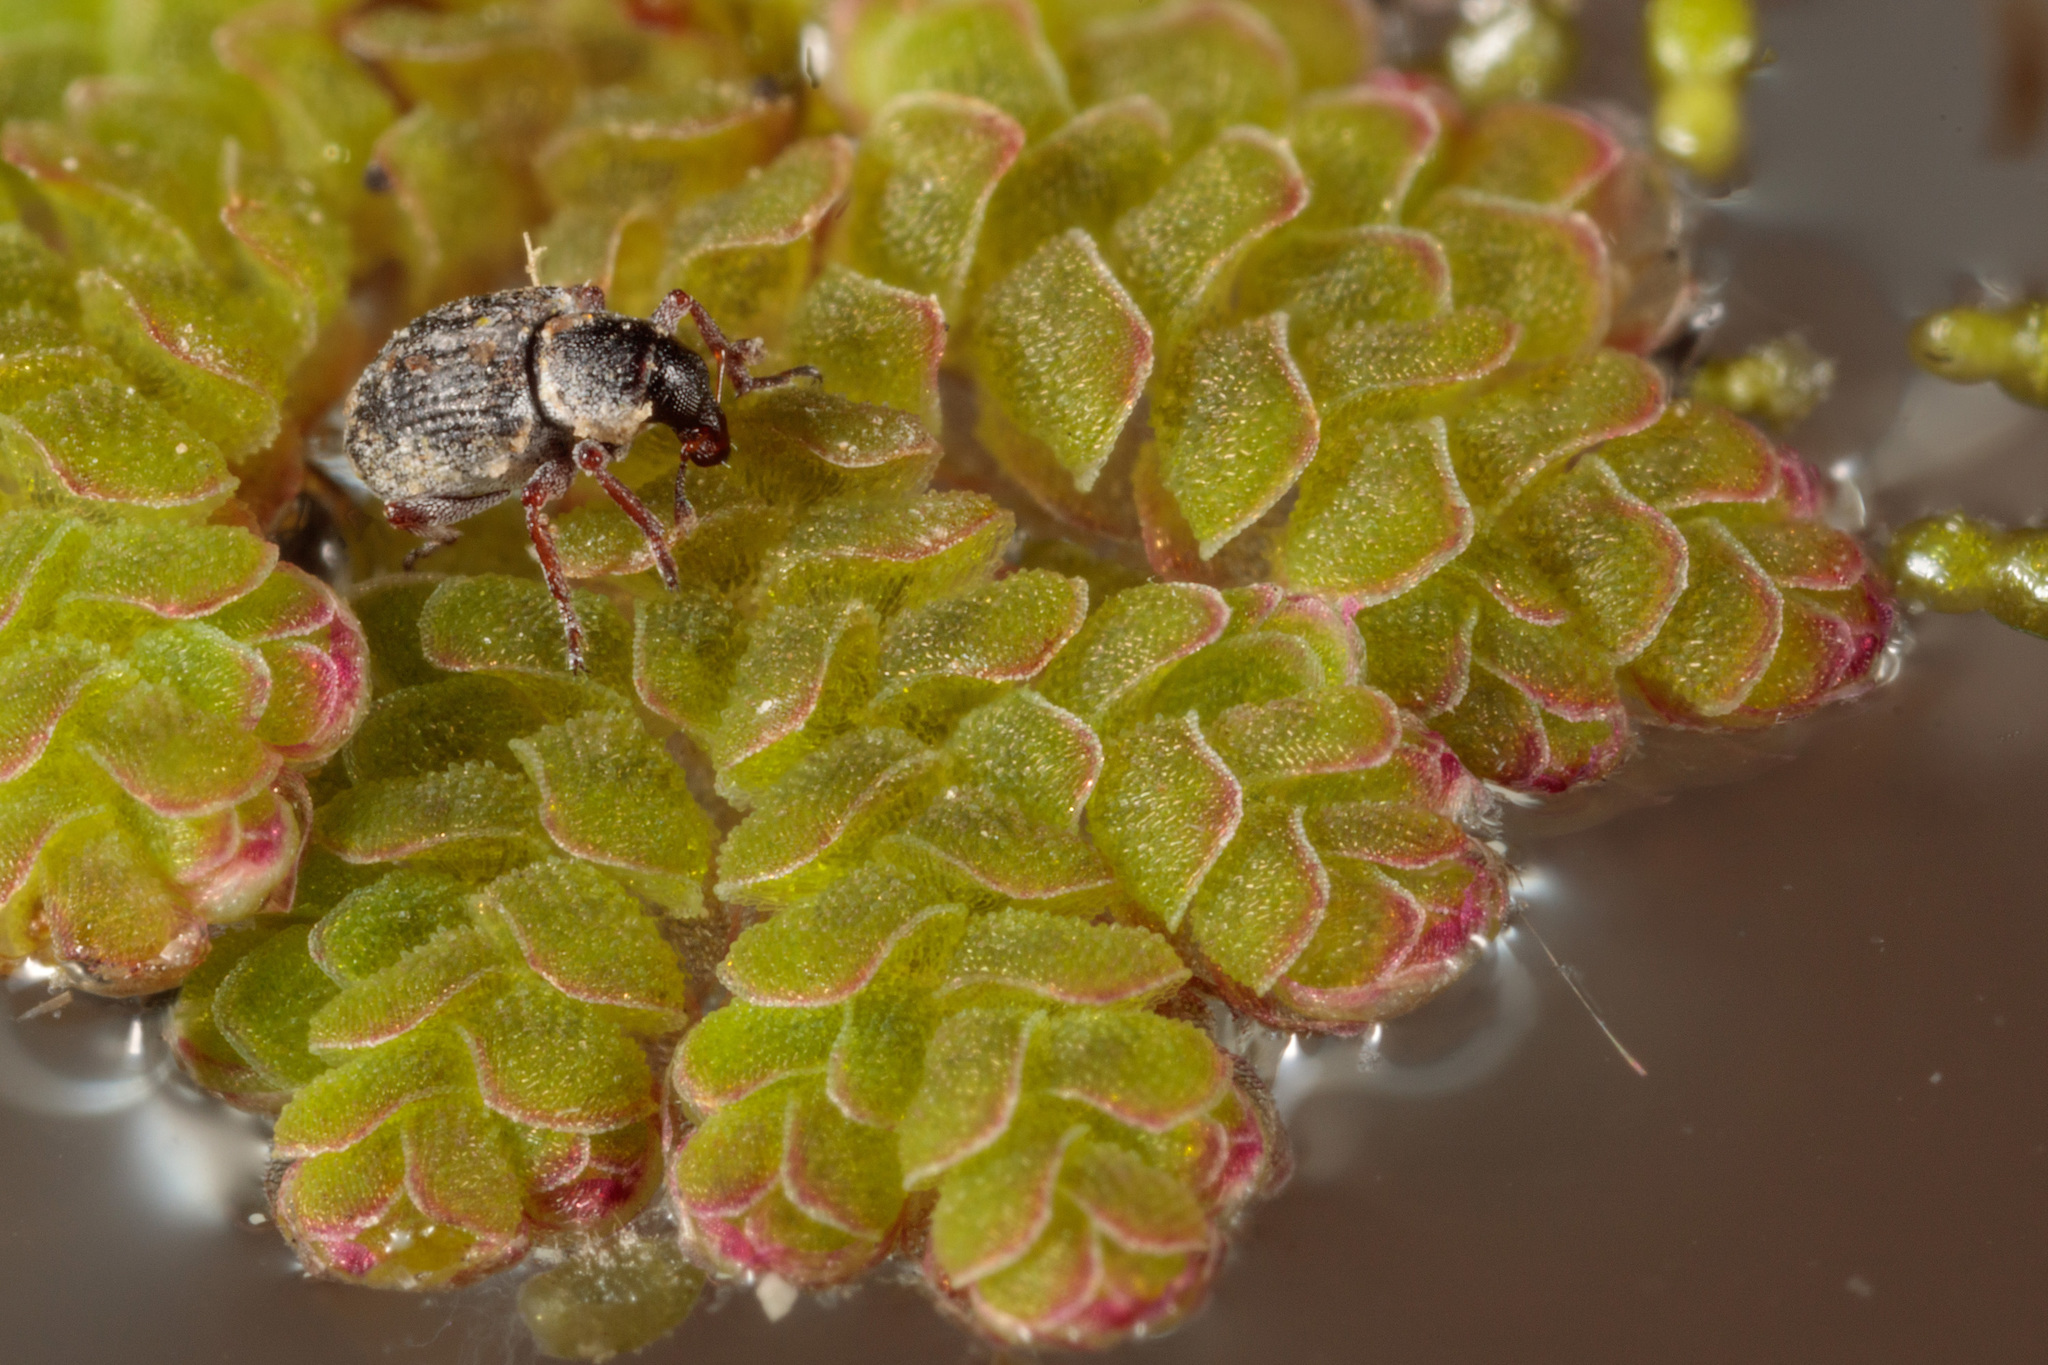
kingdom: Animalia
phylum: Arthropoda
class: Insecta
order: Coleoptera
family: Brachyceridae
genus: Stenopelmus
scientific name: Stenopelmus rufinasus
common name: Azolla weevil
